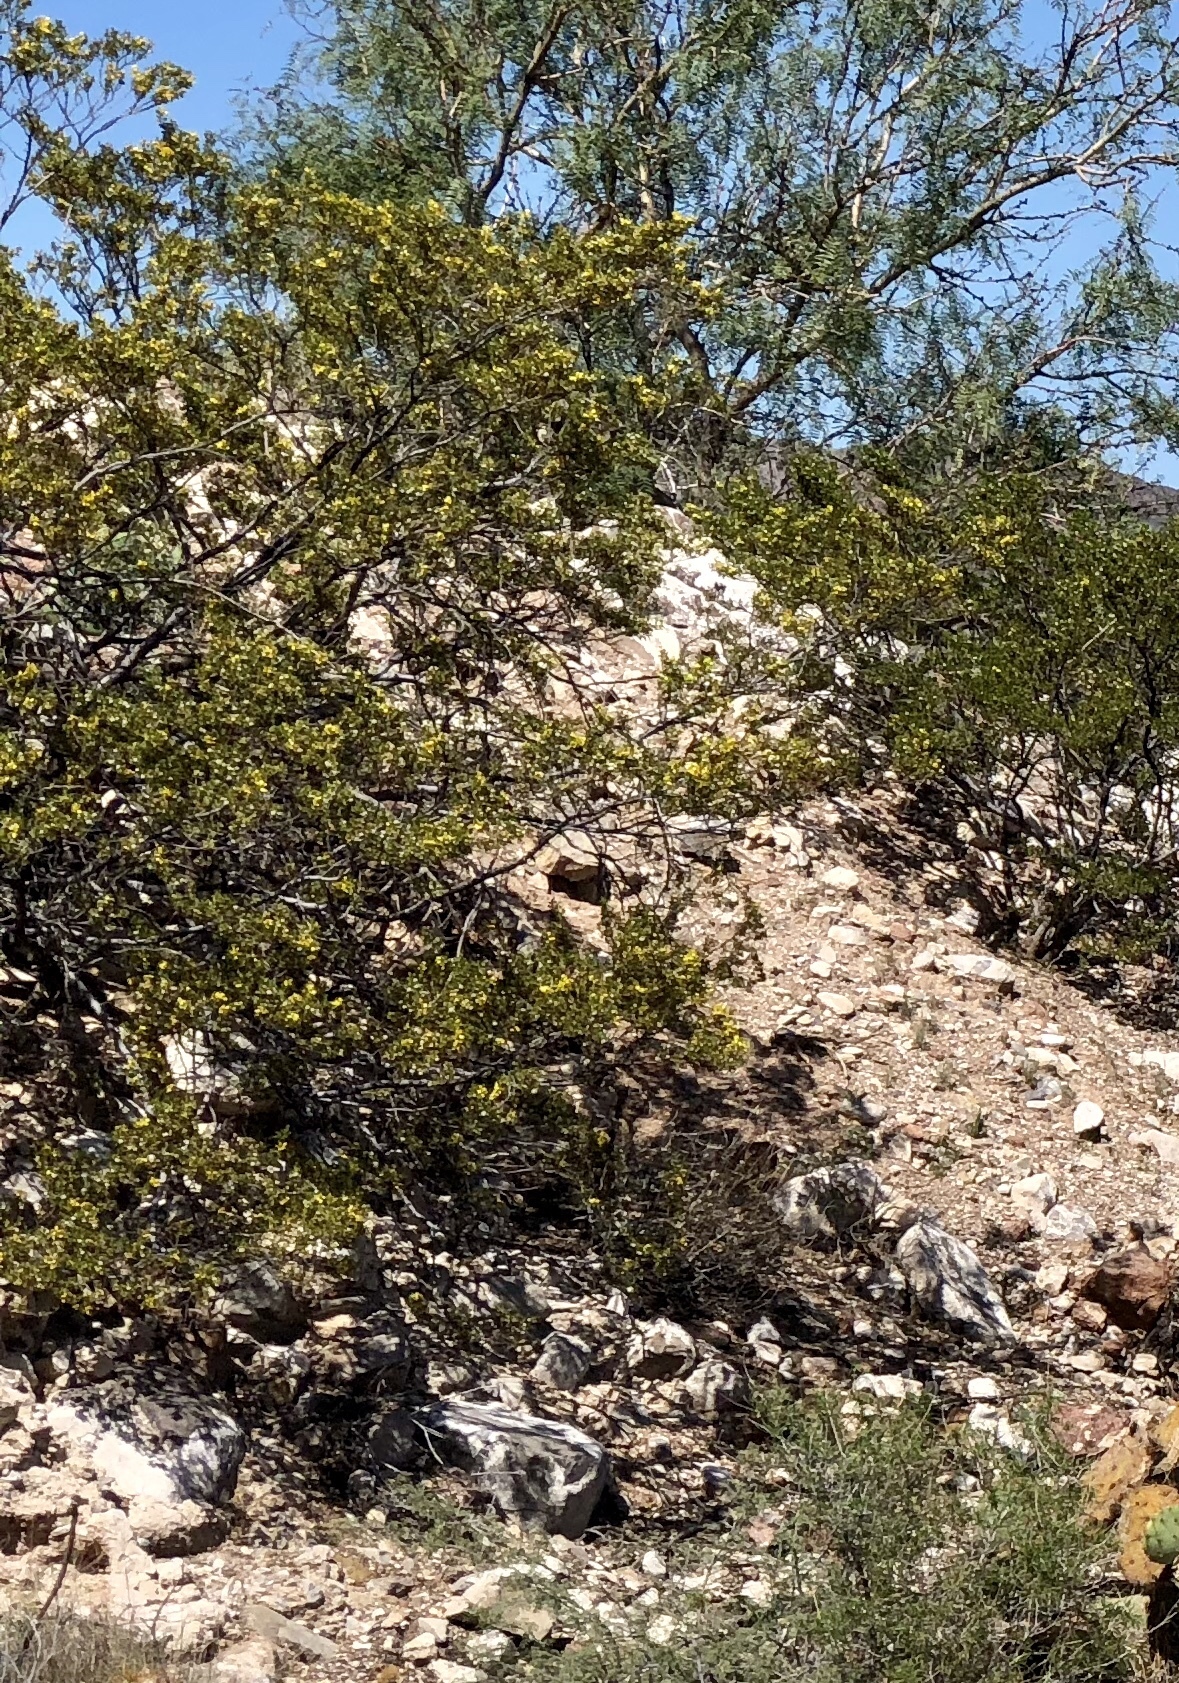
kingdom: Plantae
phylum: Tracheophyta
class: Magnoliopsida
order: Zygophyllales
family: Zygophyllaceae
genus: Larrea
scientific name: Larrea tridentata
